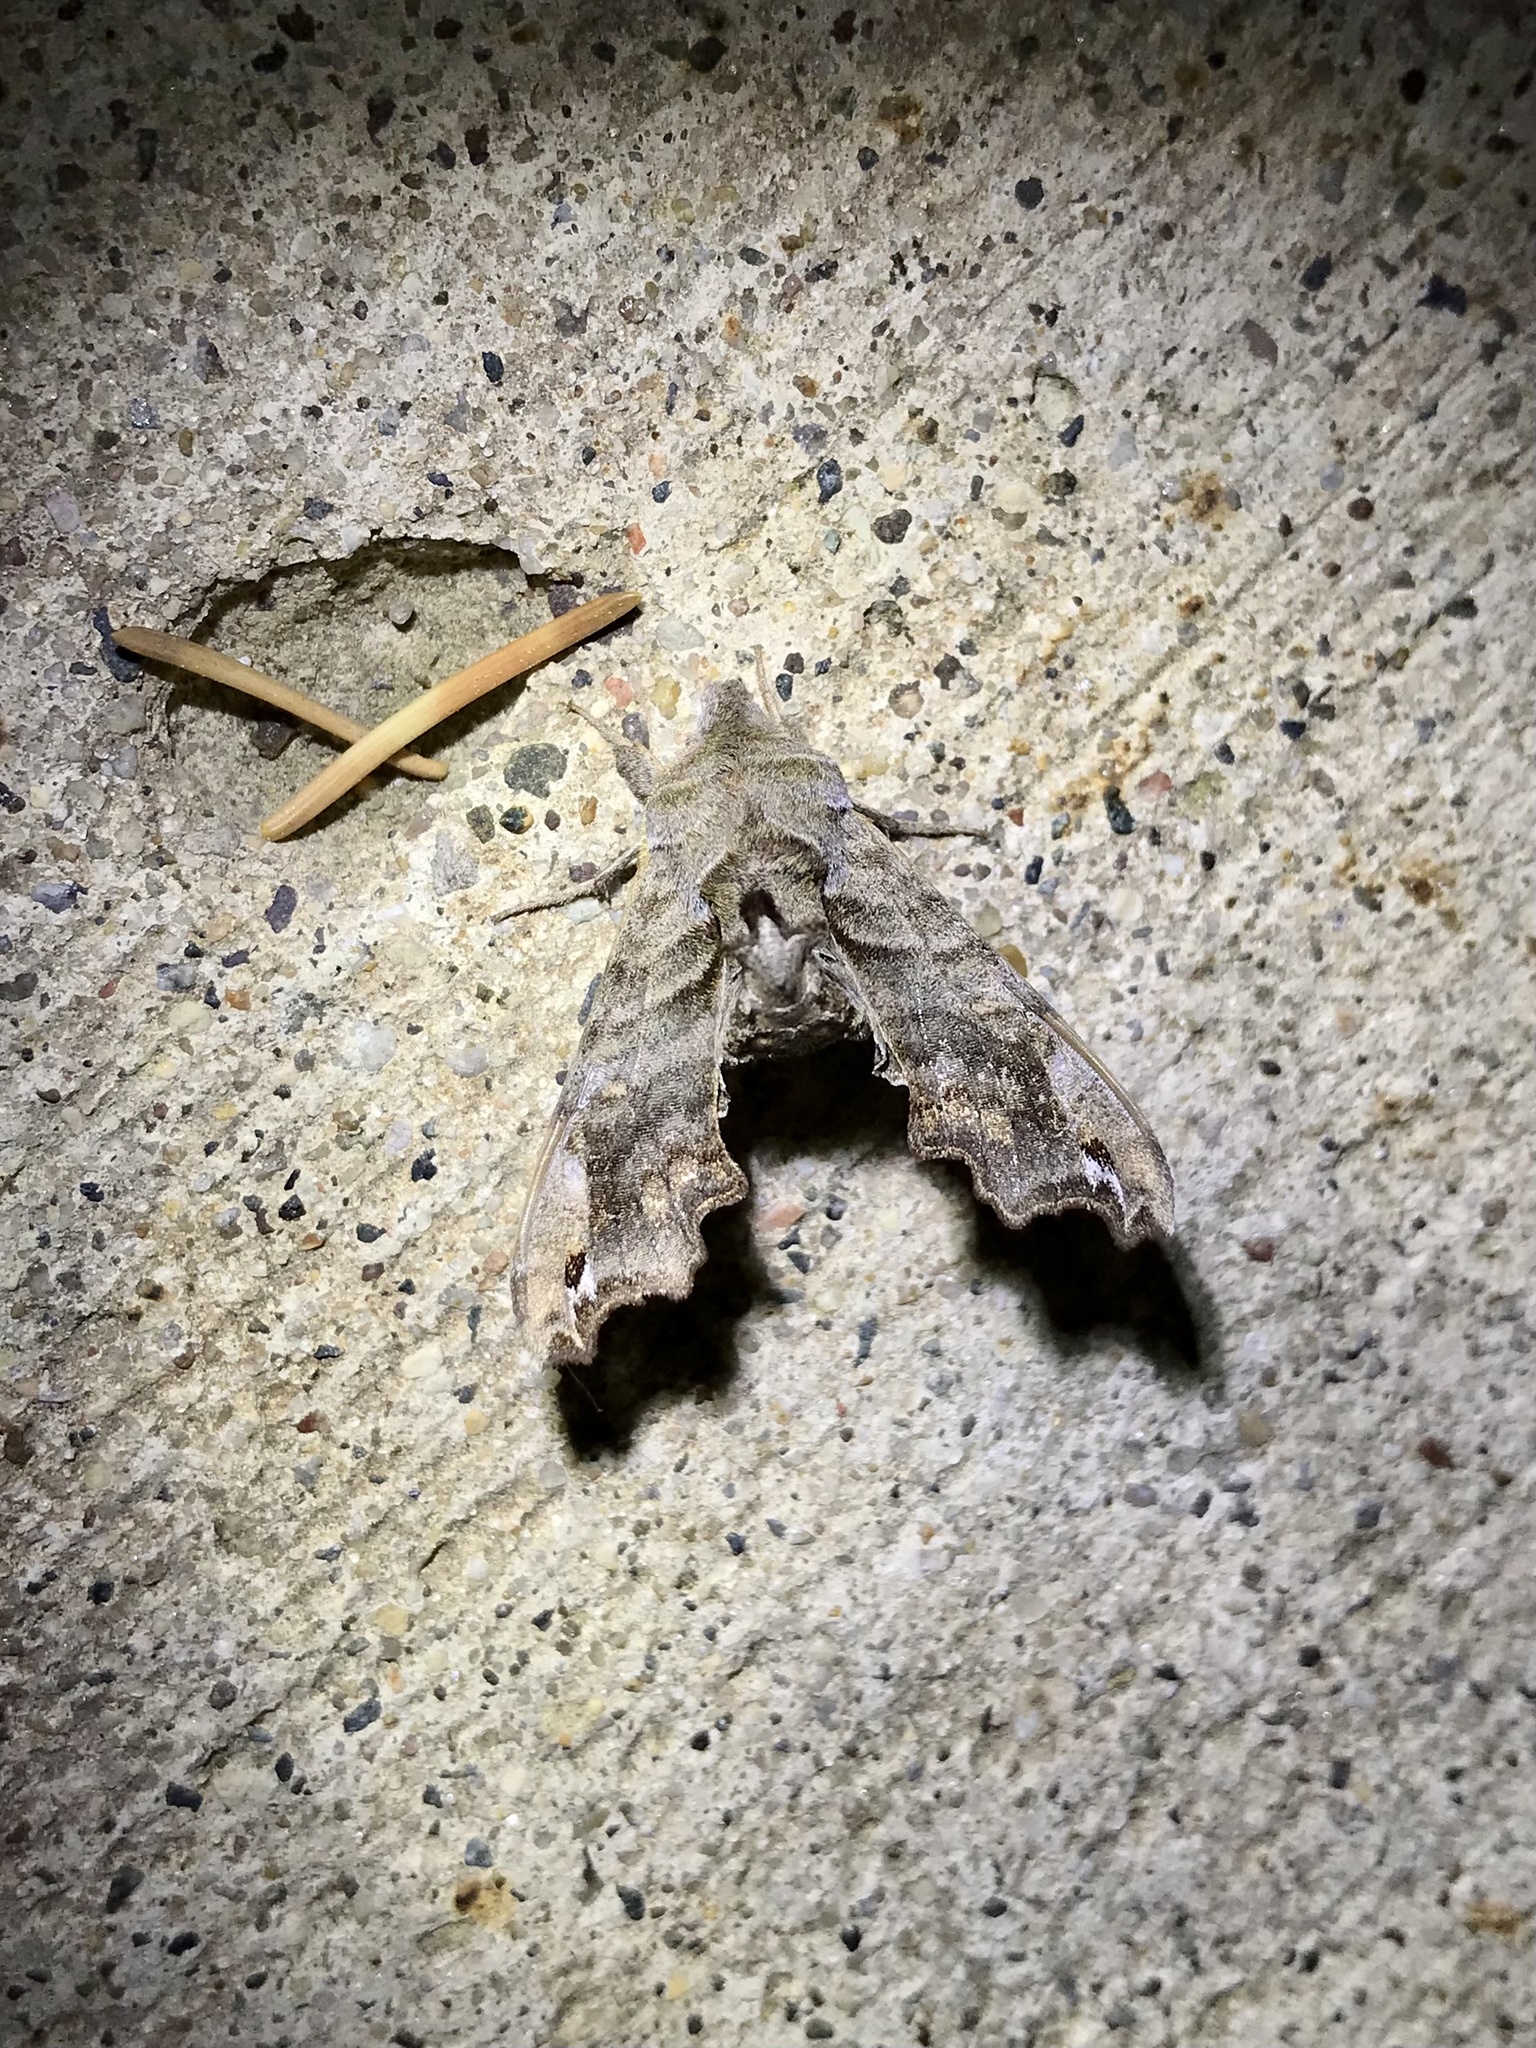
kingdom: Animalia
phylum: Arthropoda
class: Insecta
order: Lepidoptera
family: Sphingidae
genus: Deidamia
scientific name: Deidamia inscriptum
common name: Lettered sphinx
